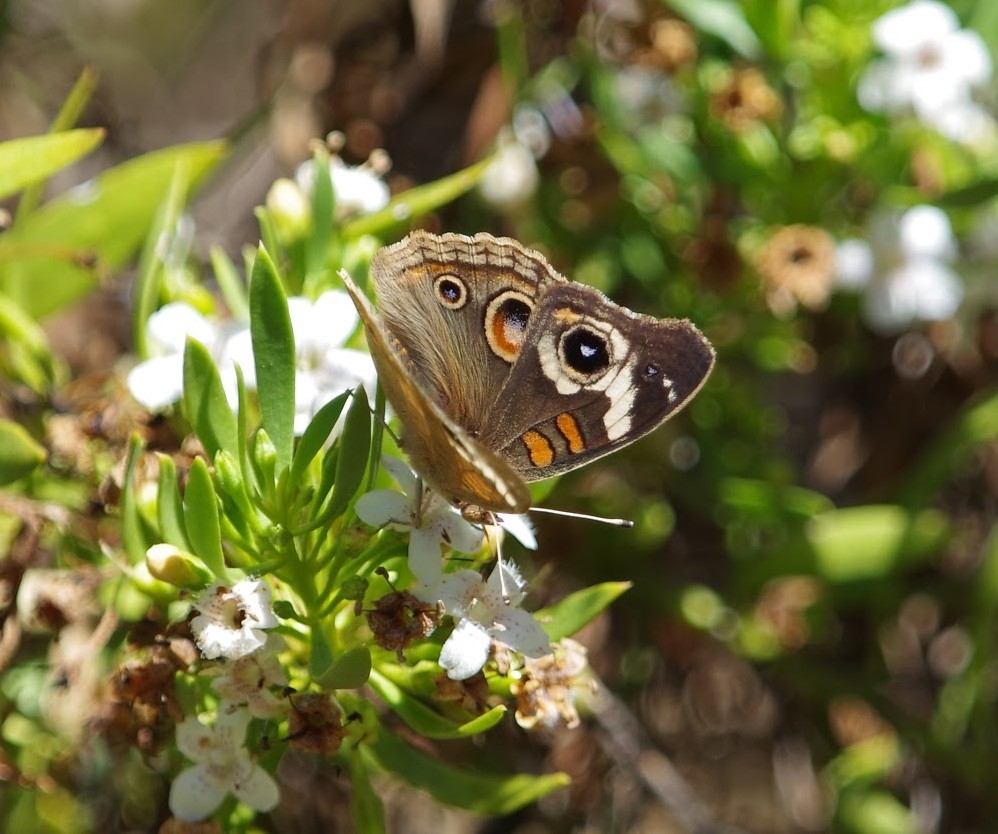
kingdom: Animalia
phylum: Arthropoda
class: Insecta
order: Lepidoptera
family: Nymphalidae
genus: Junonia
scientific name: Junonia grisea
